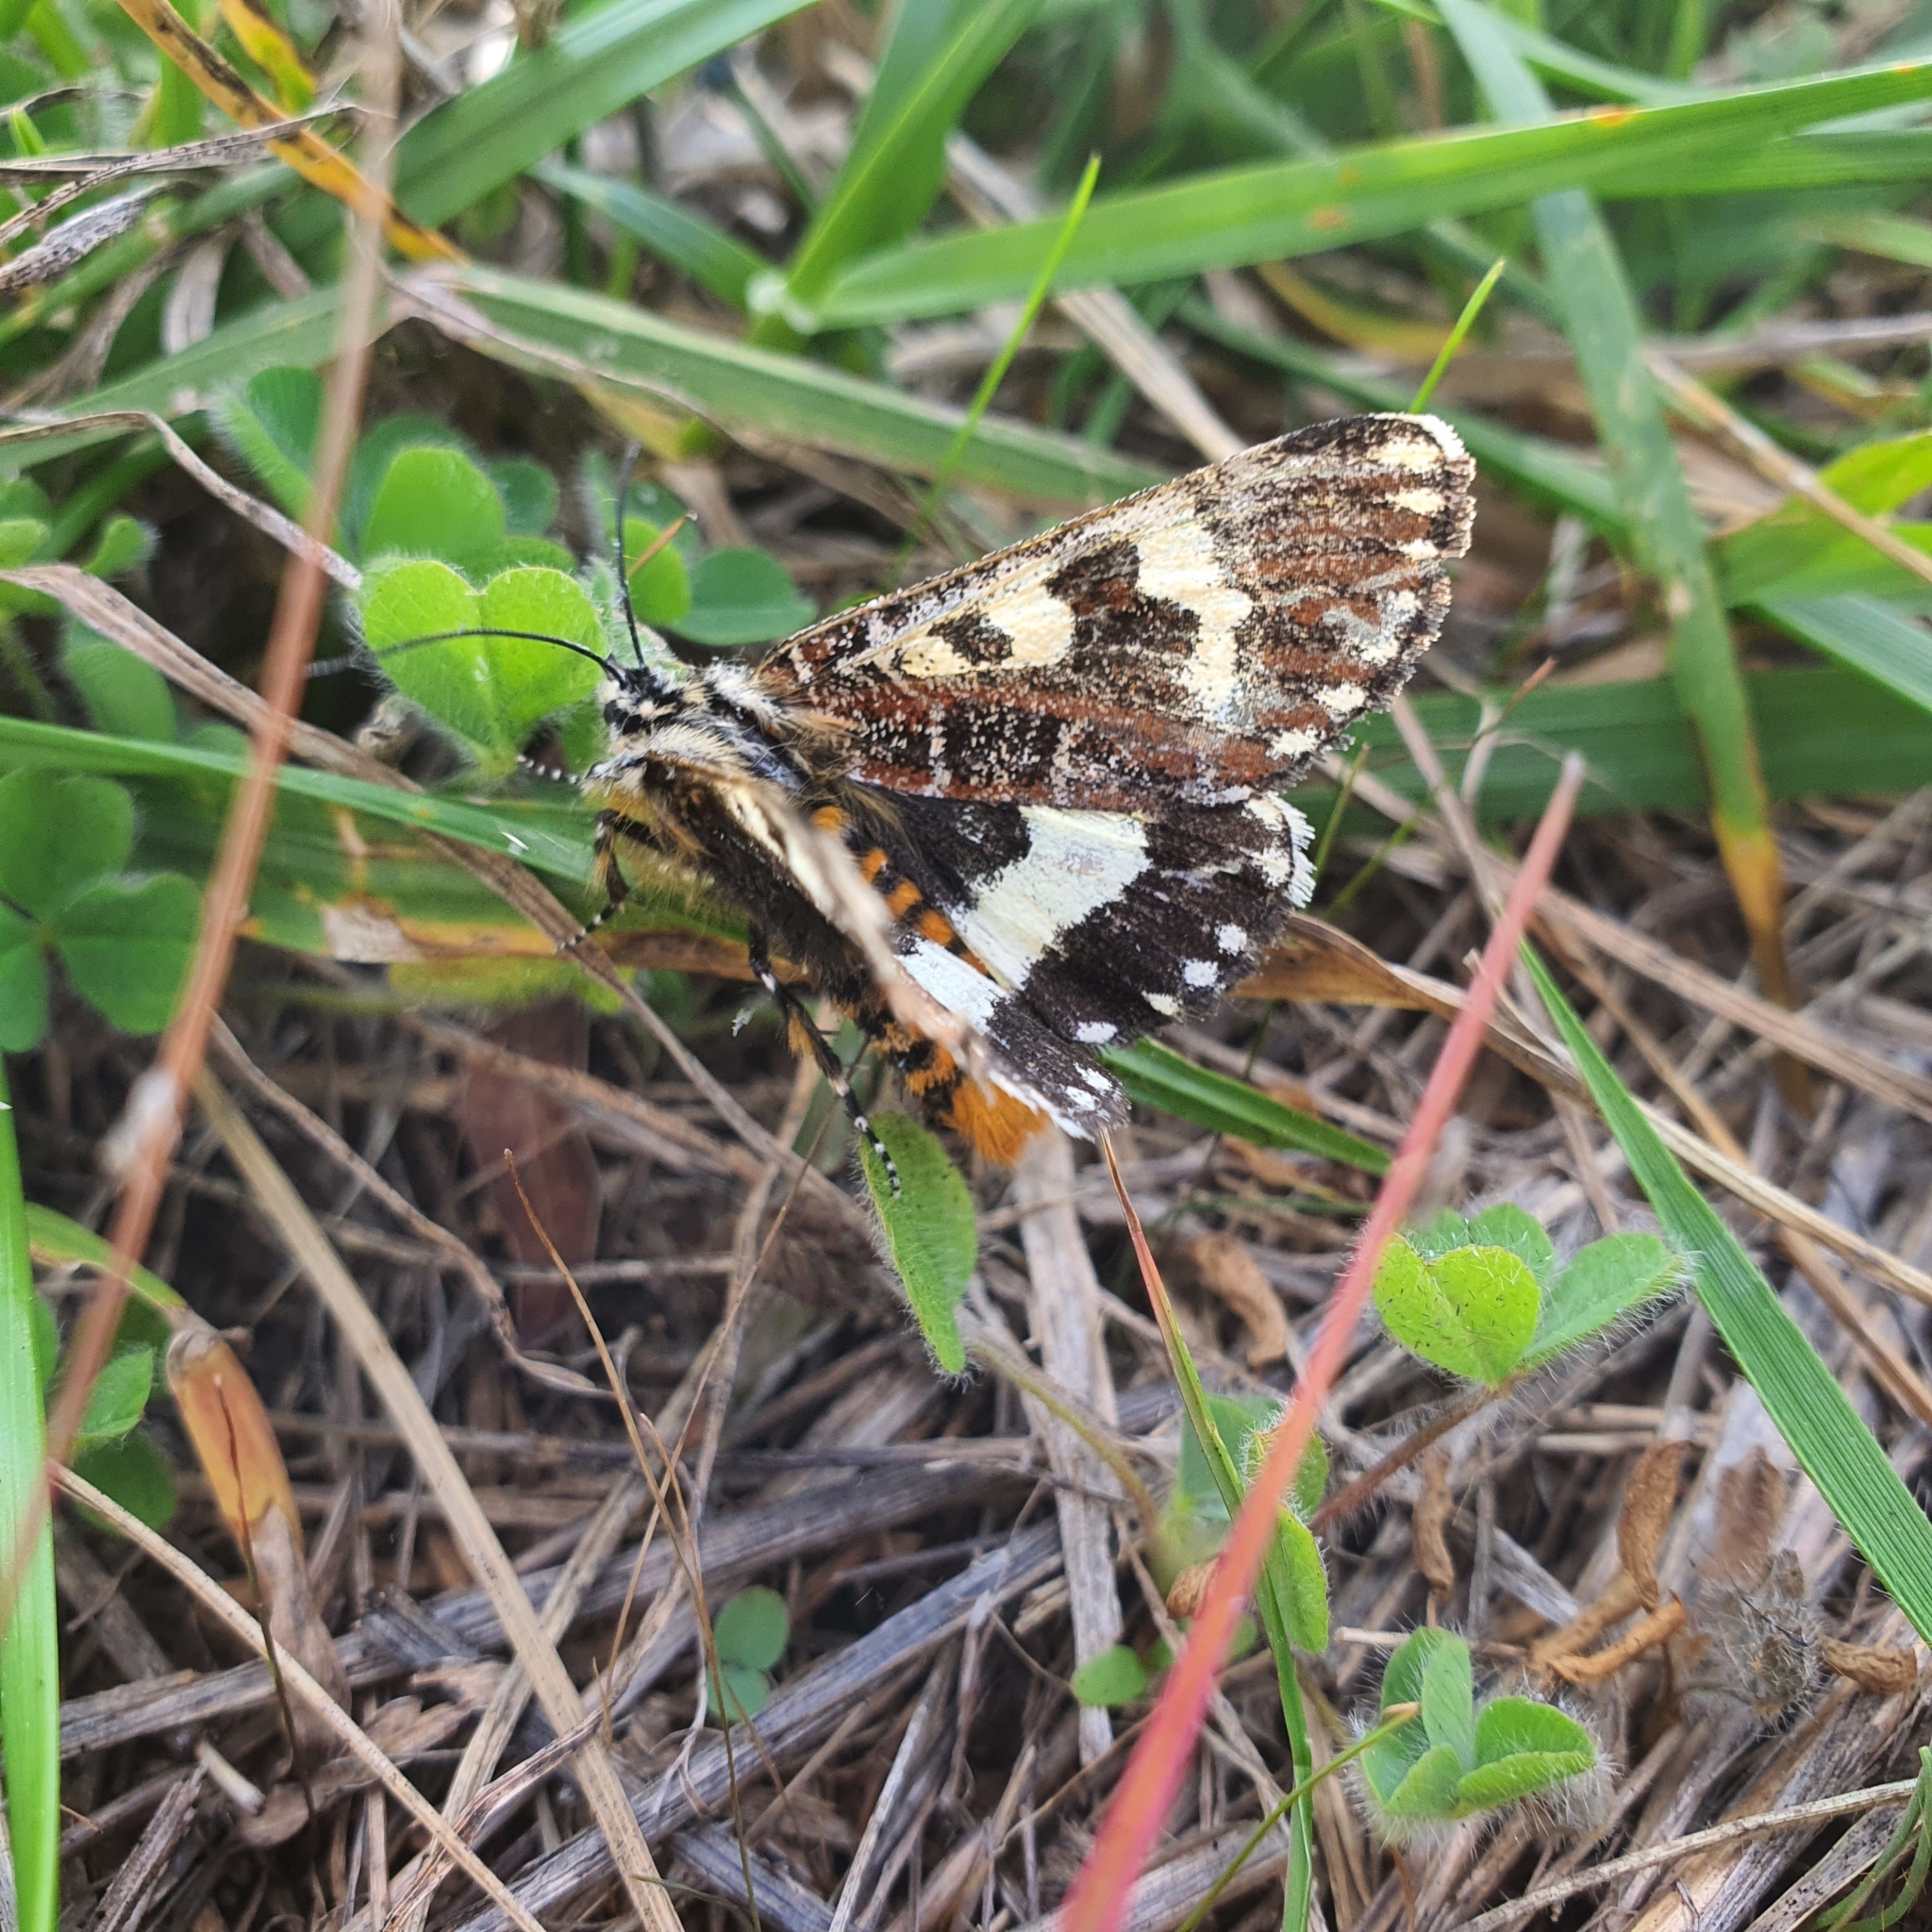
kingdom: Animalia
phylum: Arthropoda
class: Insecta
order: Lepidoptera
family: Noctuidae
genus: Apina
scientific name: Apina callisto
